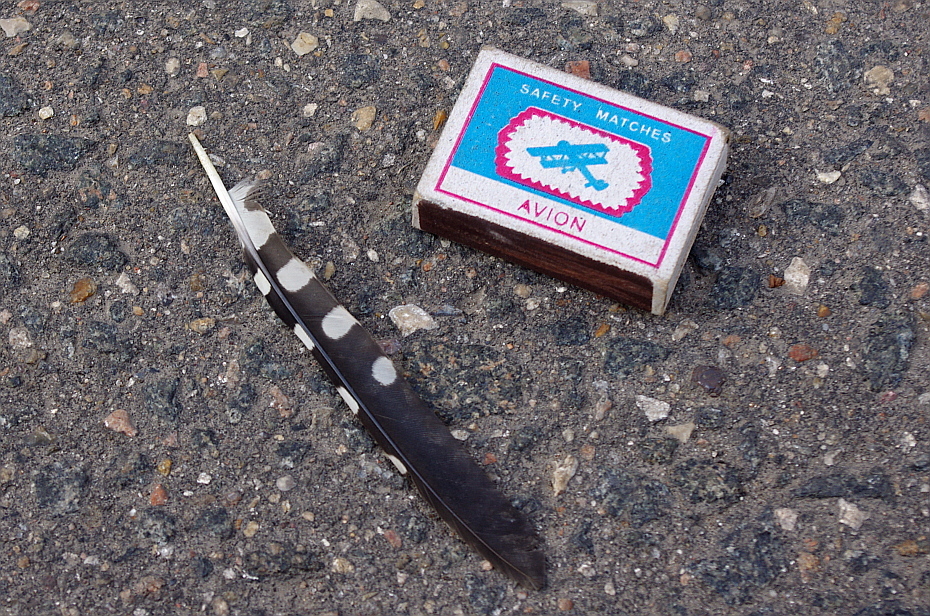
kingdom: Animalia
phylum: Chordata
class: Aves
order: Piciformes
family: Picidae
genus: Dendrocopos
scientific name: Dendrocopos major
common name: Great spotted woodpecker
